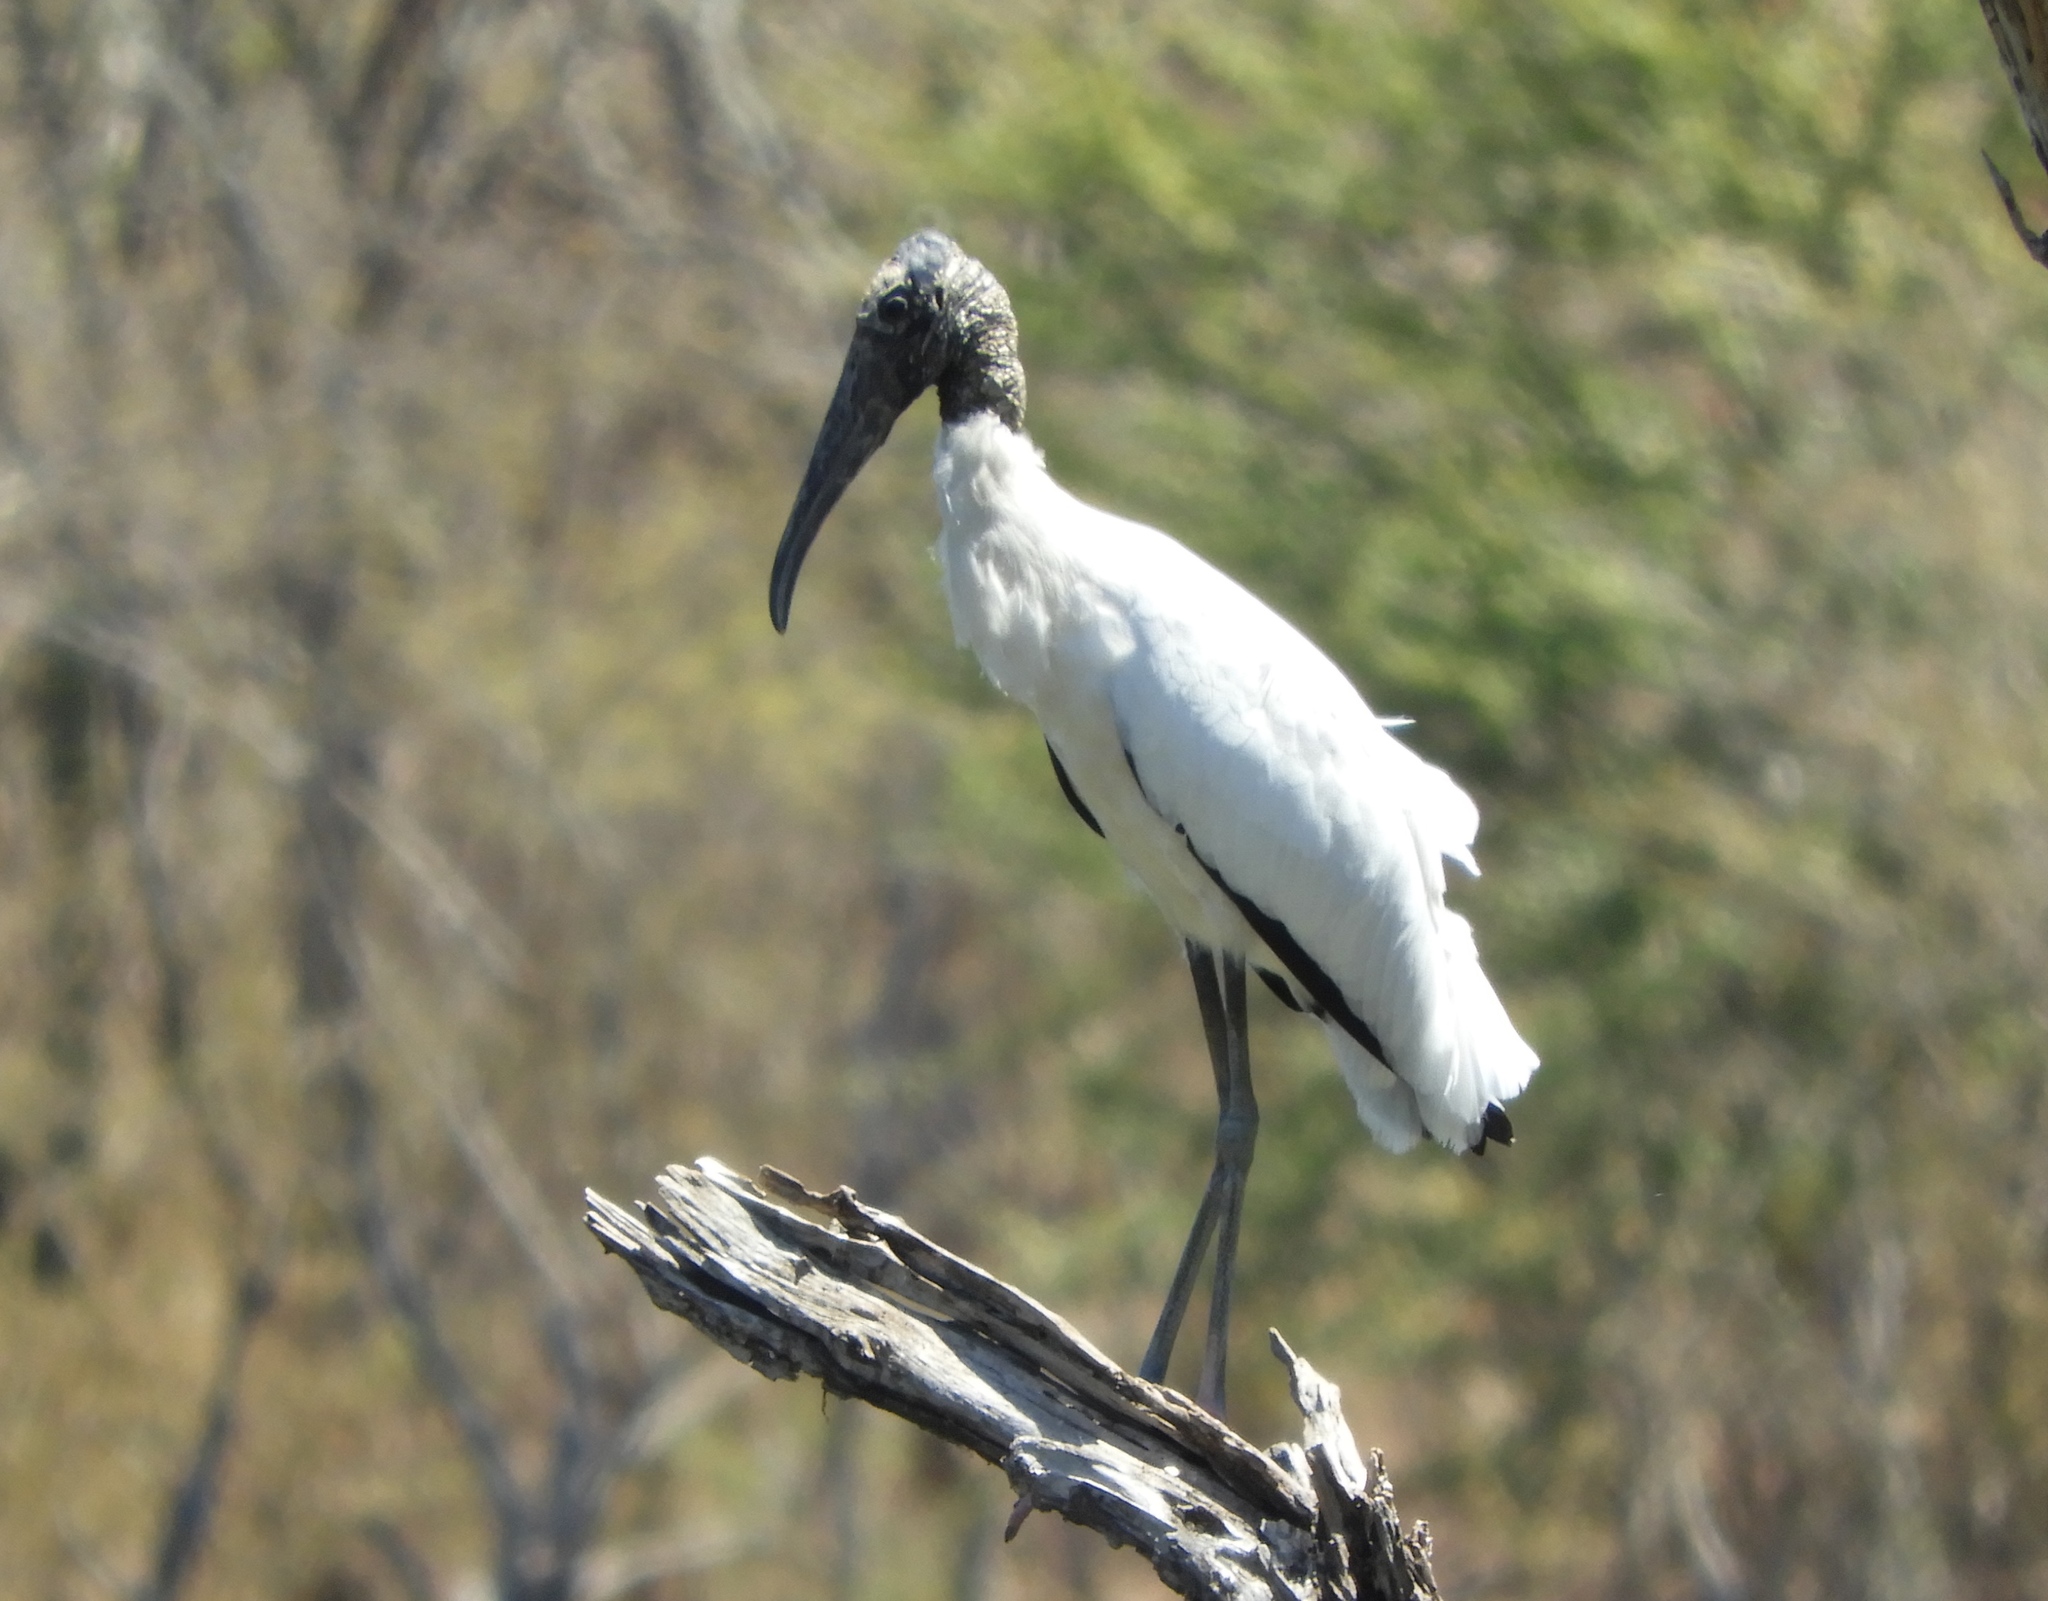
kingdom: Animalia
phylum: Chordata
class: Aves
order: Ciconiiformes
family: Ciconiidae
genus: Mycteria
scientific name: Mycteria americana
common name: Wood stork
